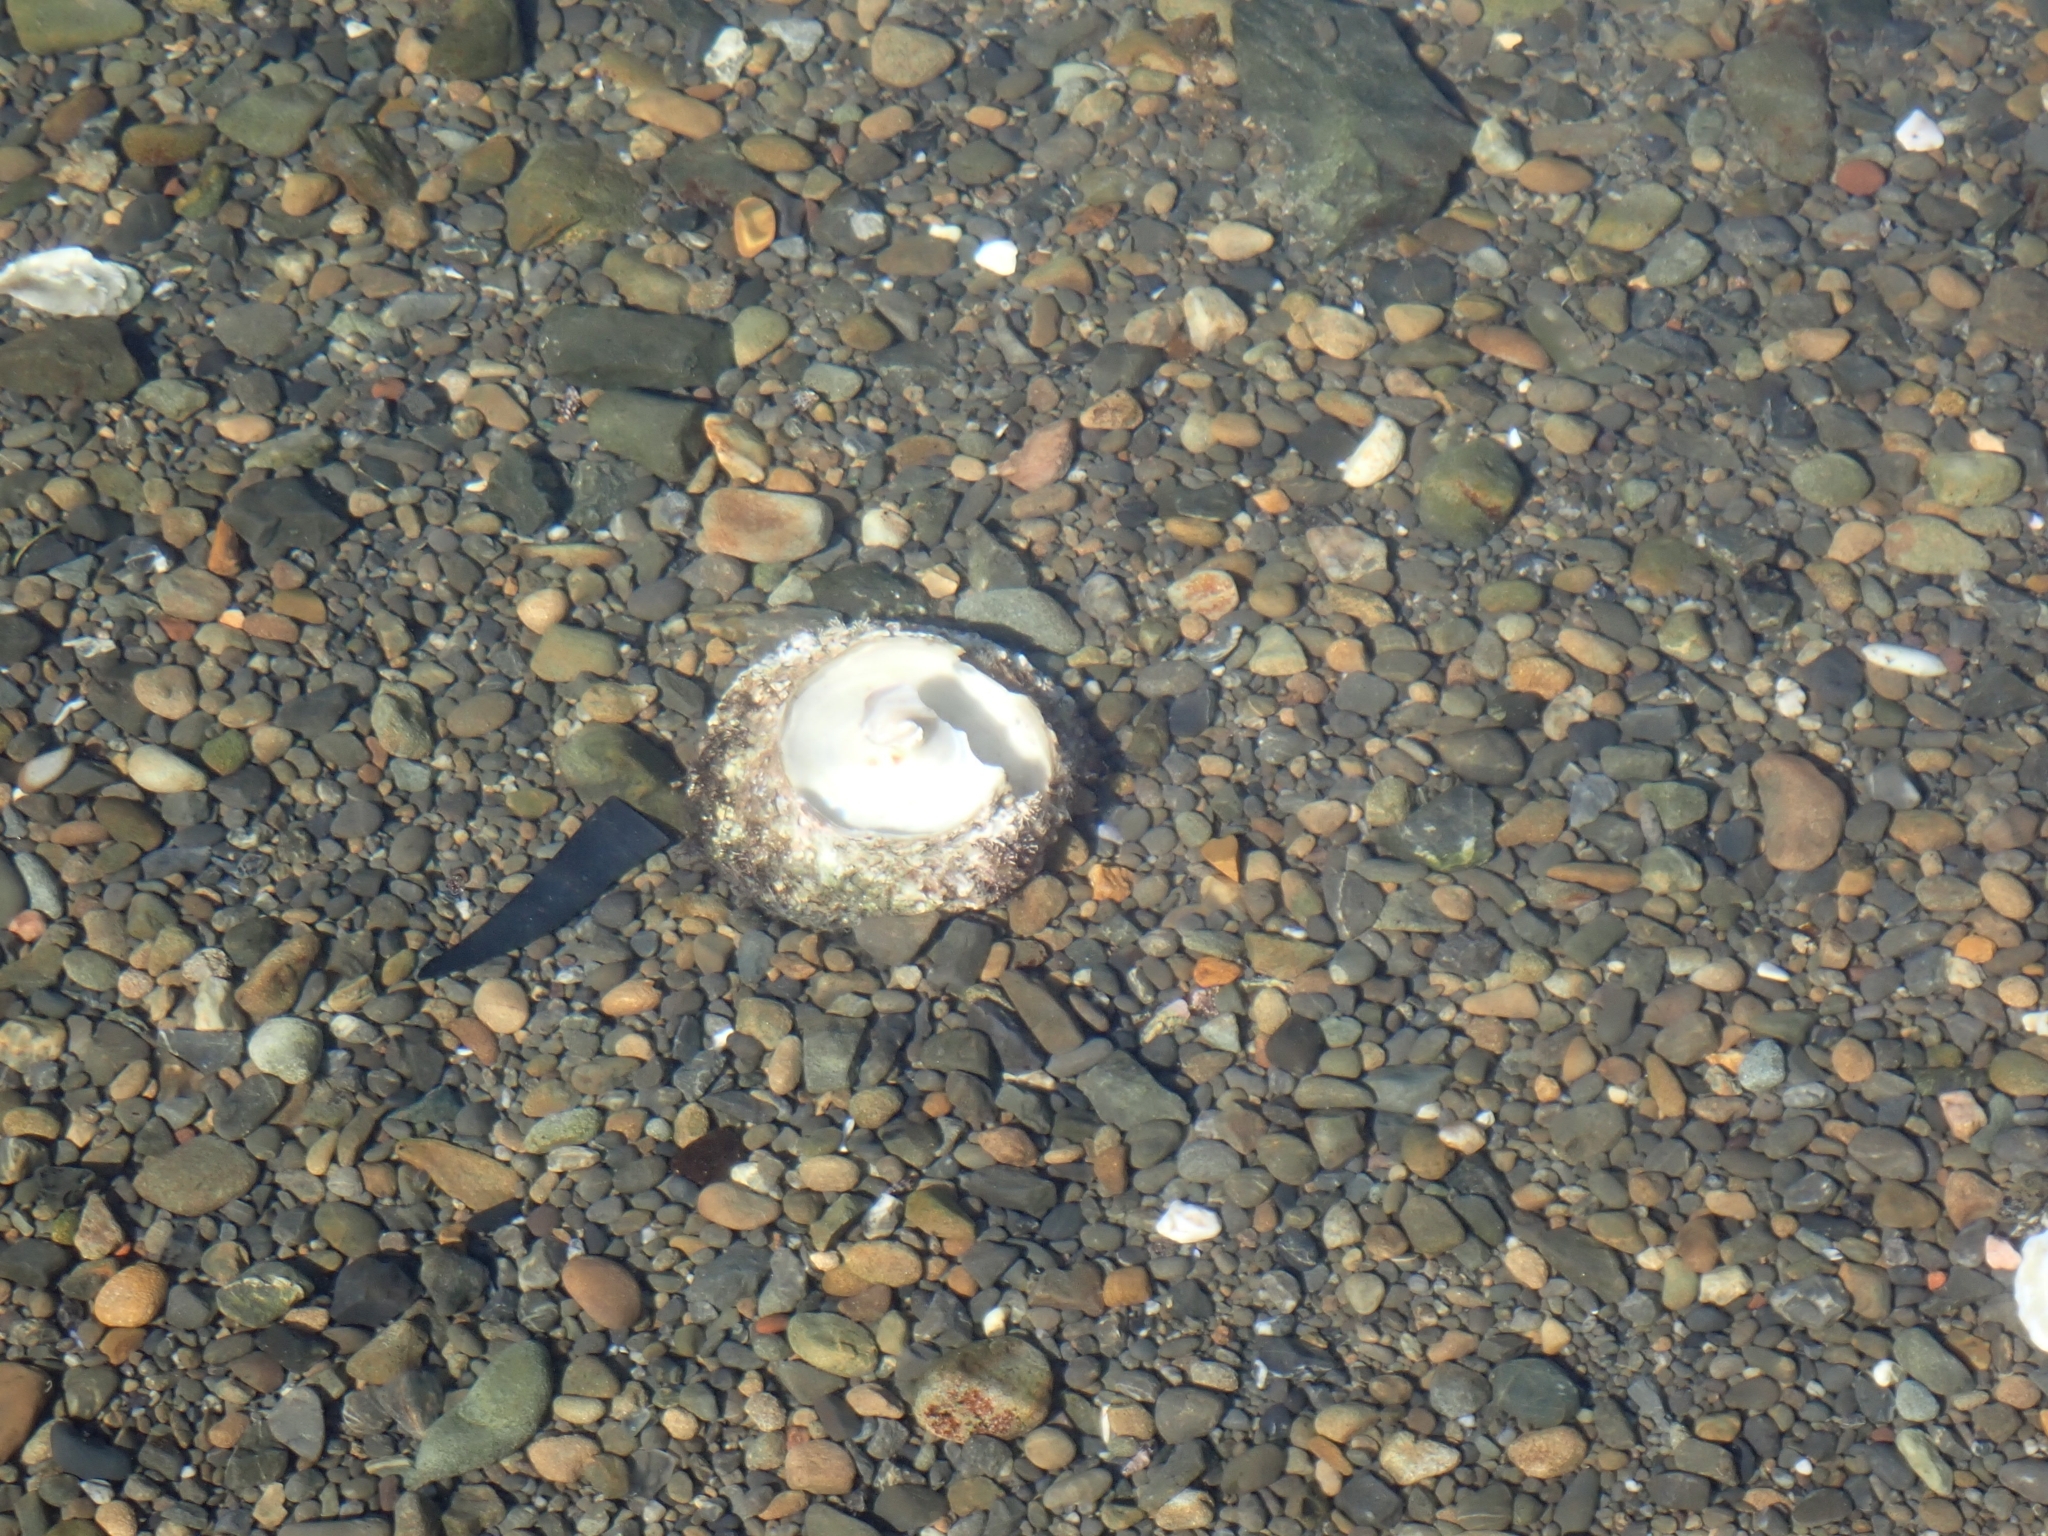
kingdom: Animalia
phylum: Mollusca
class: Gastropoda
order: Trochida
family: Turbinidae
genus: Cookia
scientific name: Cookia sulcata
